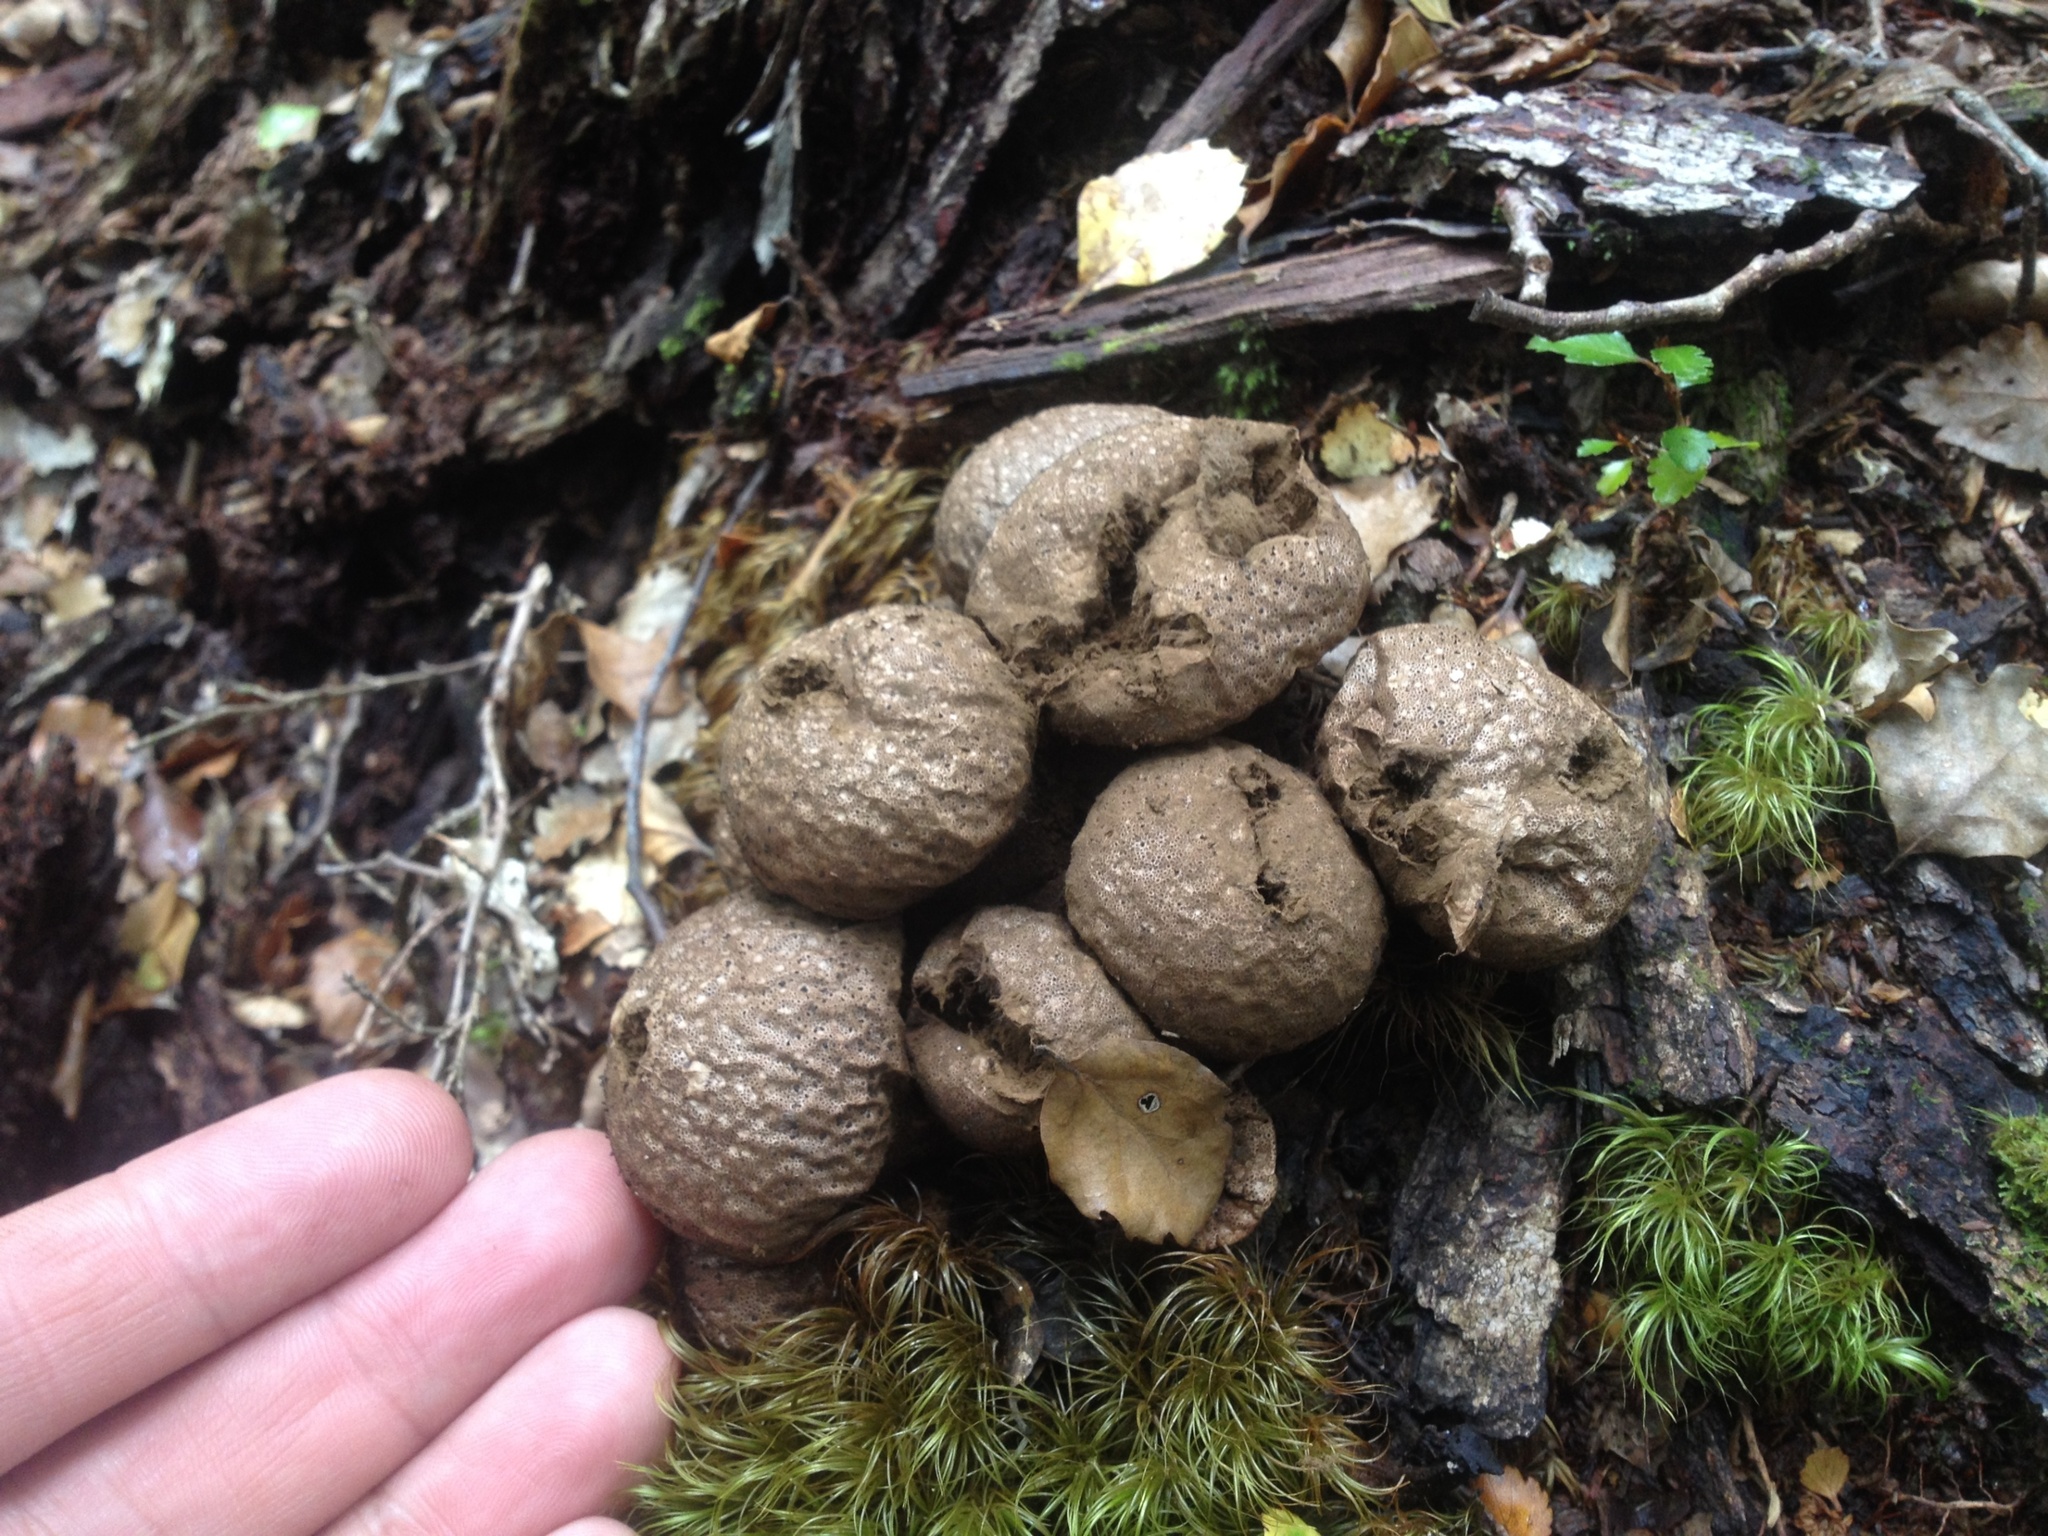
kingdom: Fungi
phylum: Basidiomycota
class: Agaricomycetes
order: Agaricales
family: Lycoperdaceae
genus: Lycoperdon
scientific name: Lycoperdon perlatum
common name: Common puffball
